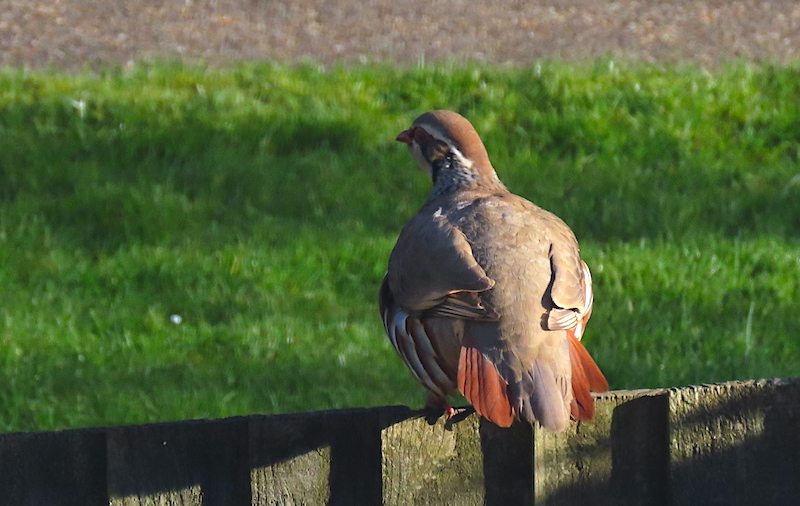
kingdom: Animalia
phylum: Chordata
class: Aves
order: Galliformes
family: Phasianidae
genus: Alectoris
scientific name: Alectoris rufa
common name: Red-legged partridge
